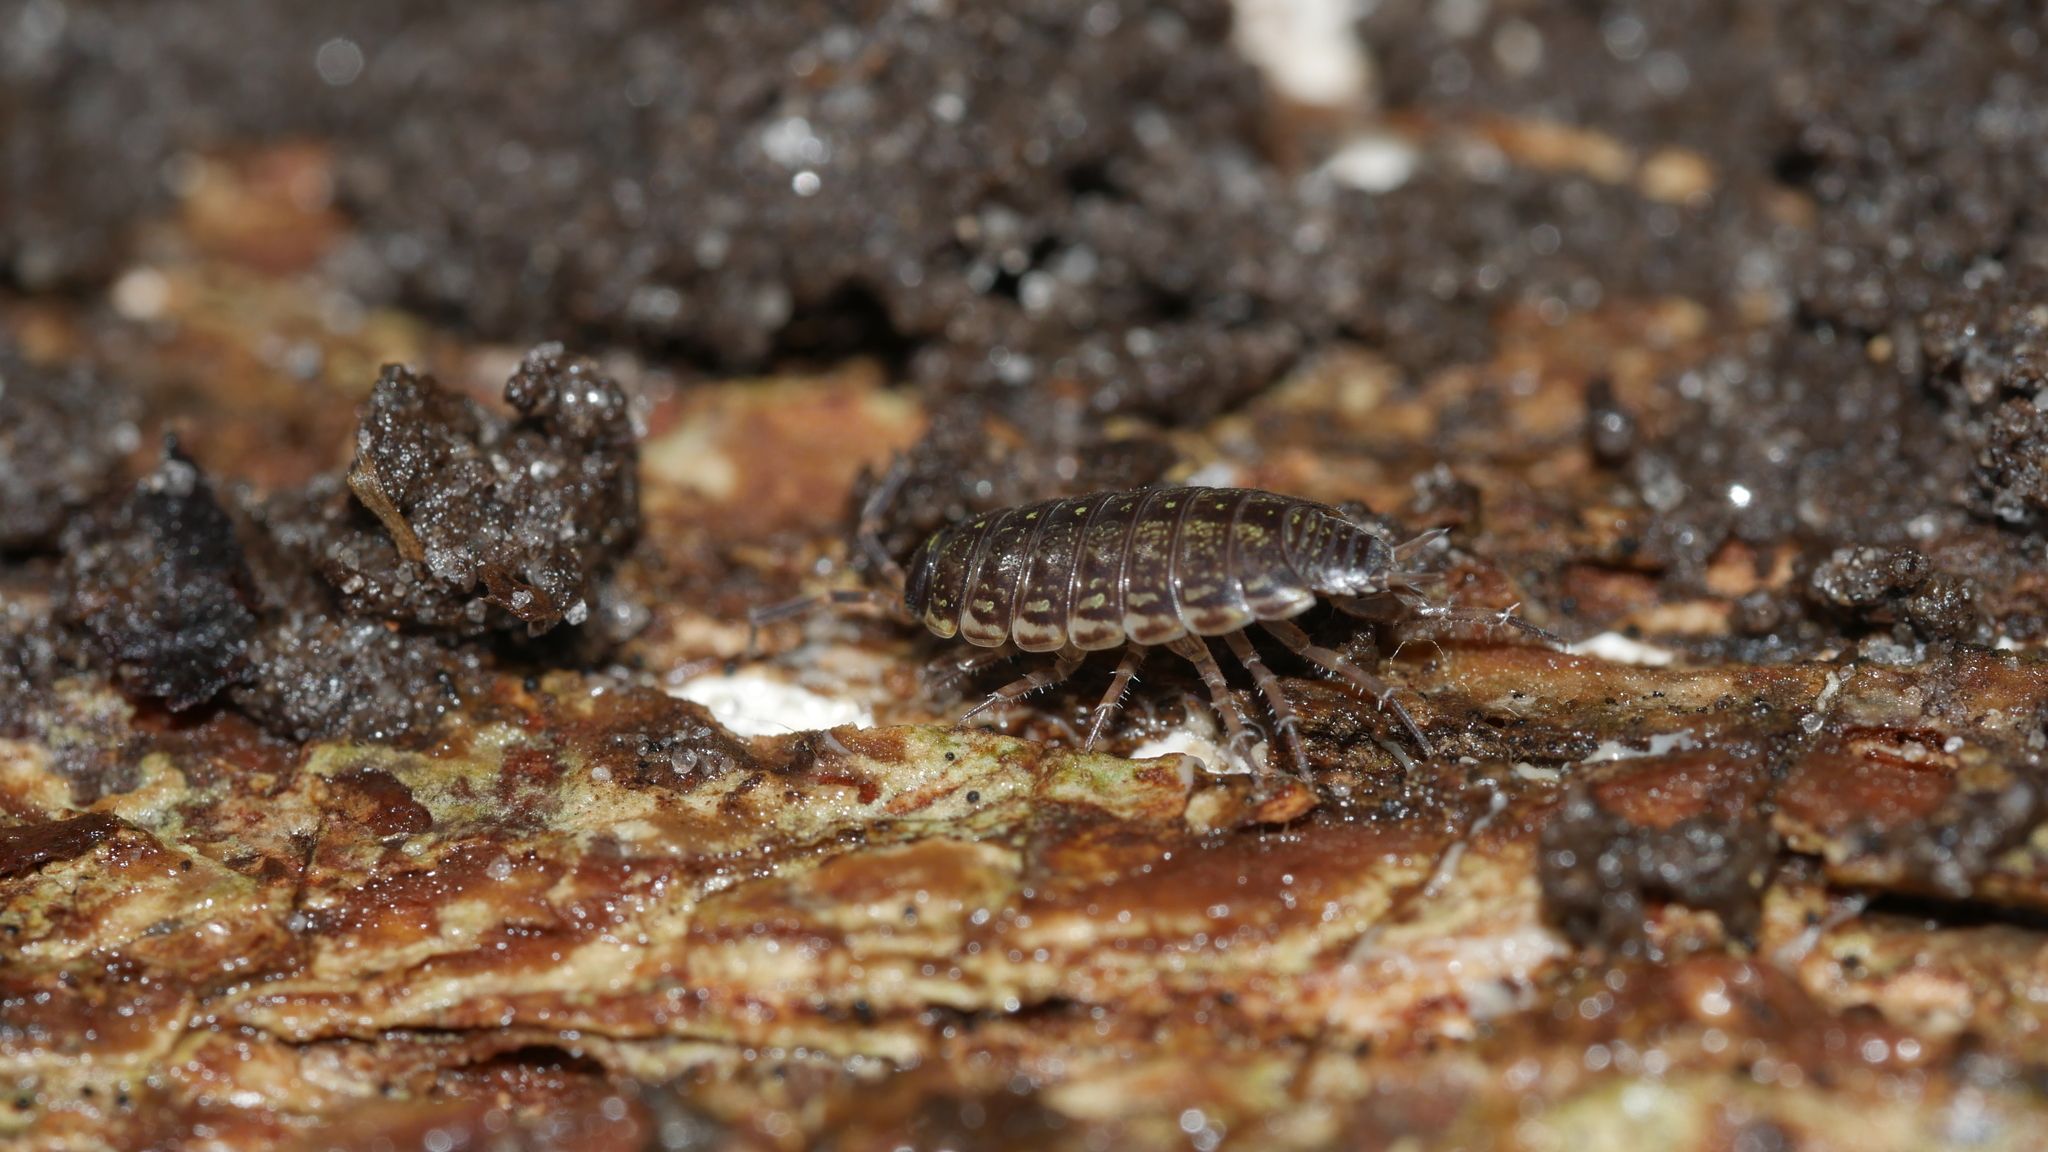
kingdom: Animalia
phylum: Arthropoda
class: Malacostraca
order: Isopoda
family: Philosciidae
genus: Philoscia
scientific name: Philoscia muscorum
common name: Common striped woodlouse
